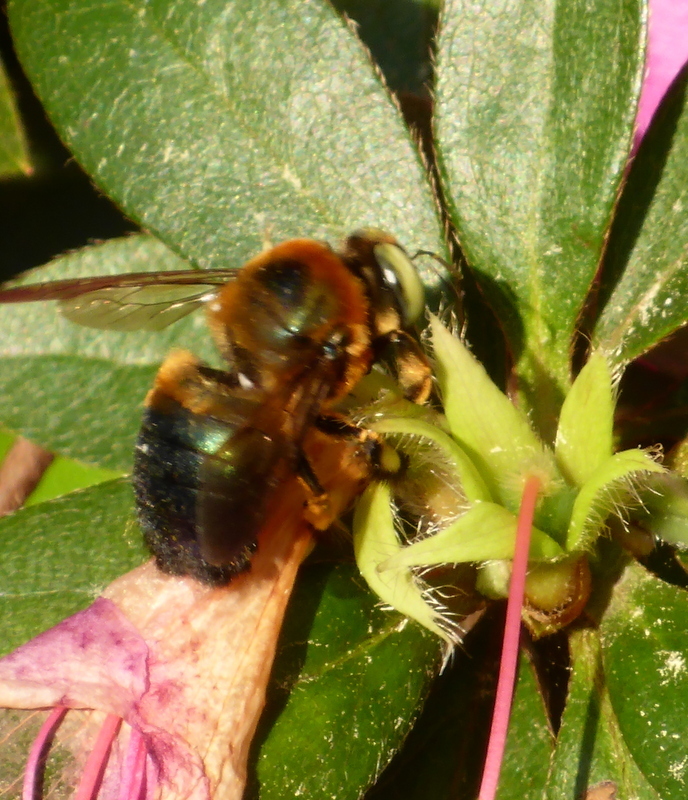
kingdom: Animalia
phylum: Arthropoda
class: Insecta
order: Hymenoptera
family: Apidae
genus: Xylocopa
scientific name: Xylocopa micans
